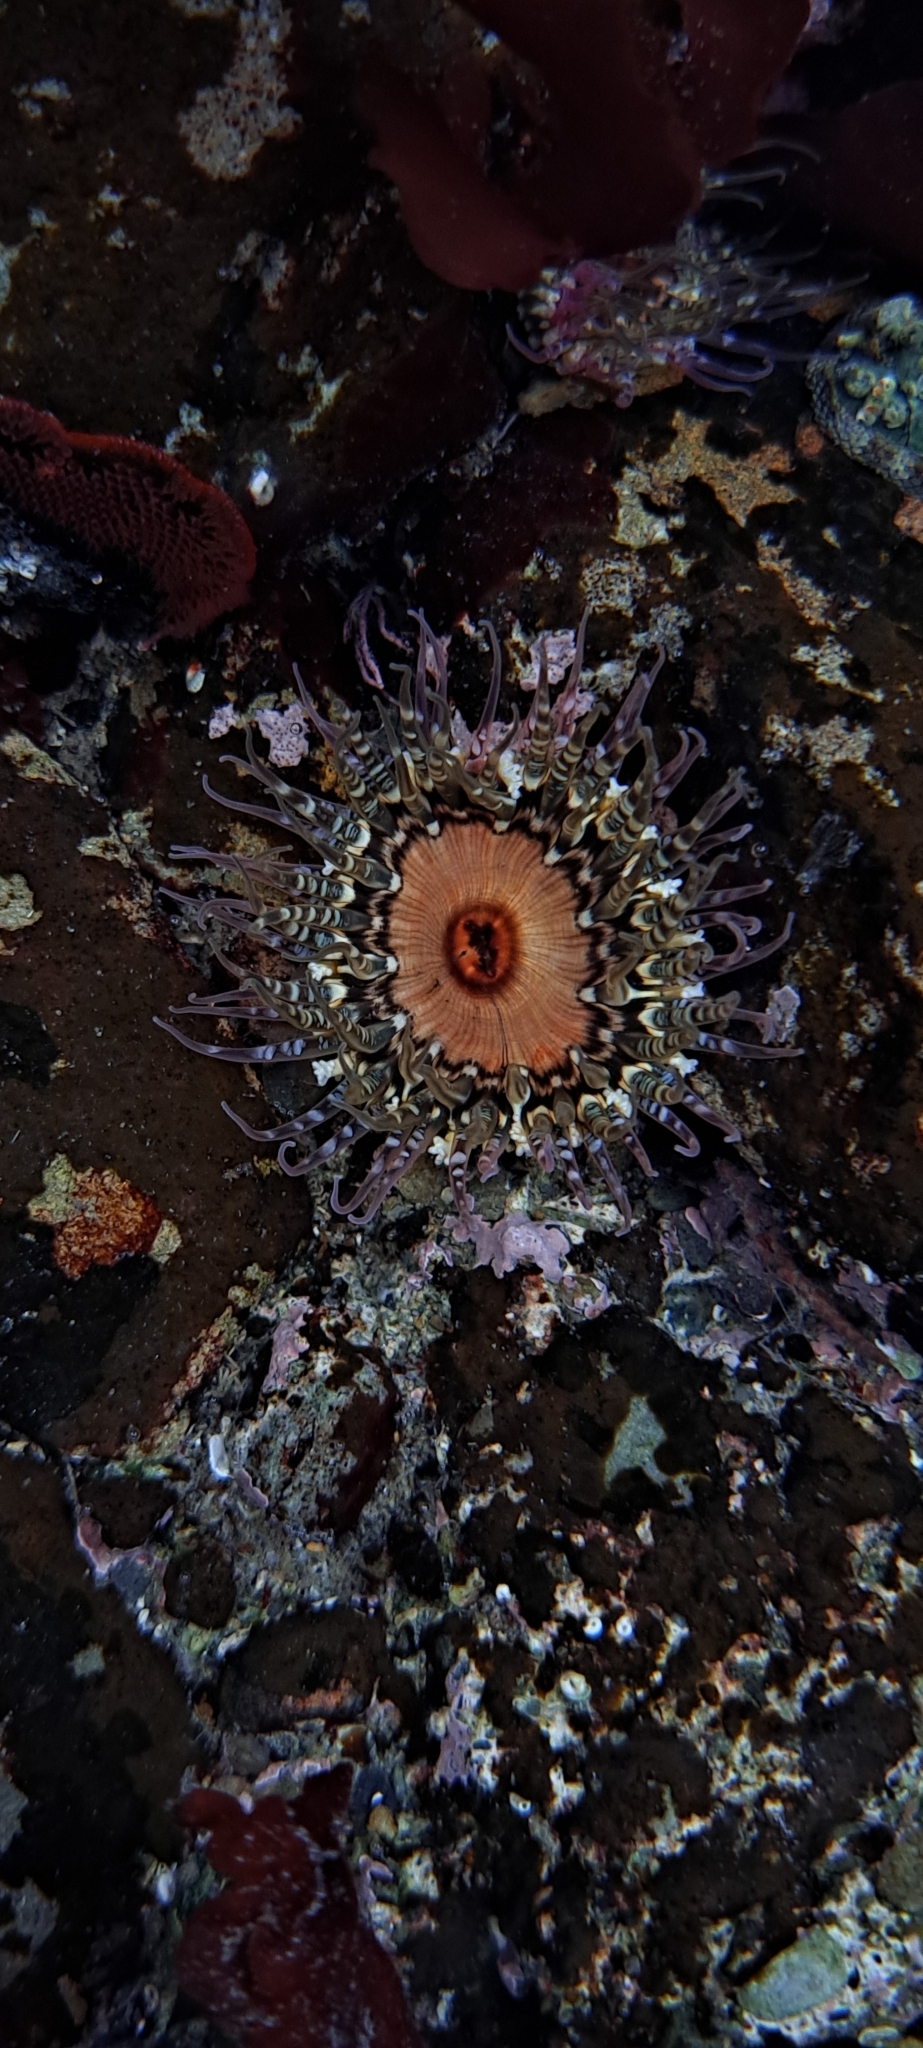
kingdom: Animalia
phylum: Cnidaria
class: Anthozoa
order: Actiniaria
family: Actiniidae
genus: Oulactis
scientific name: Oulactis muscosa
